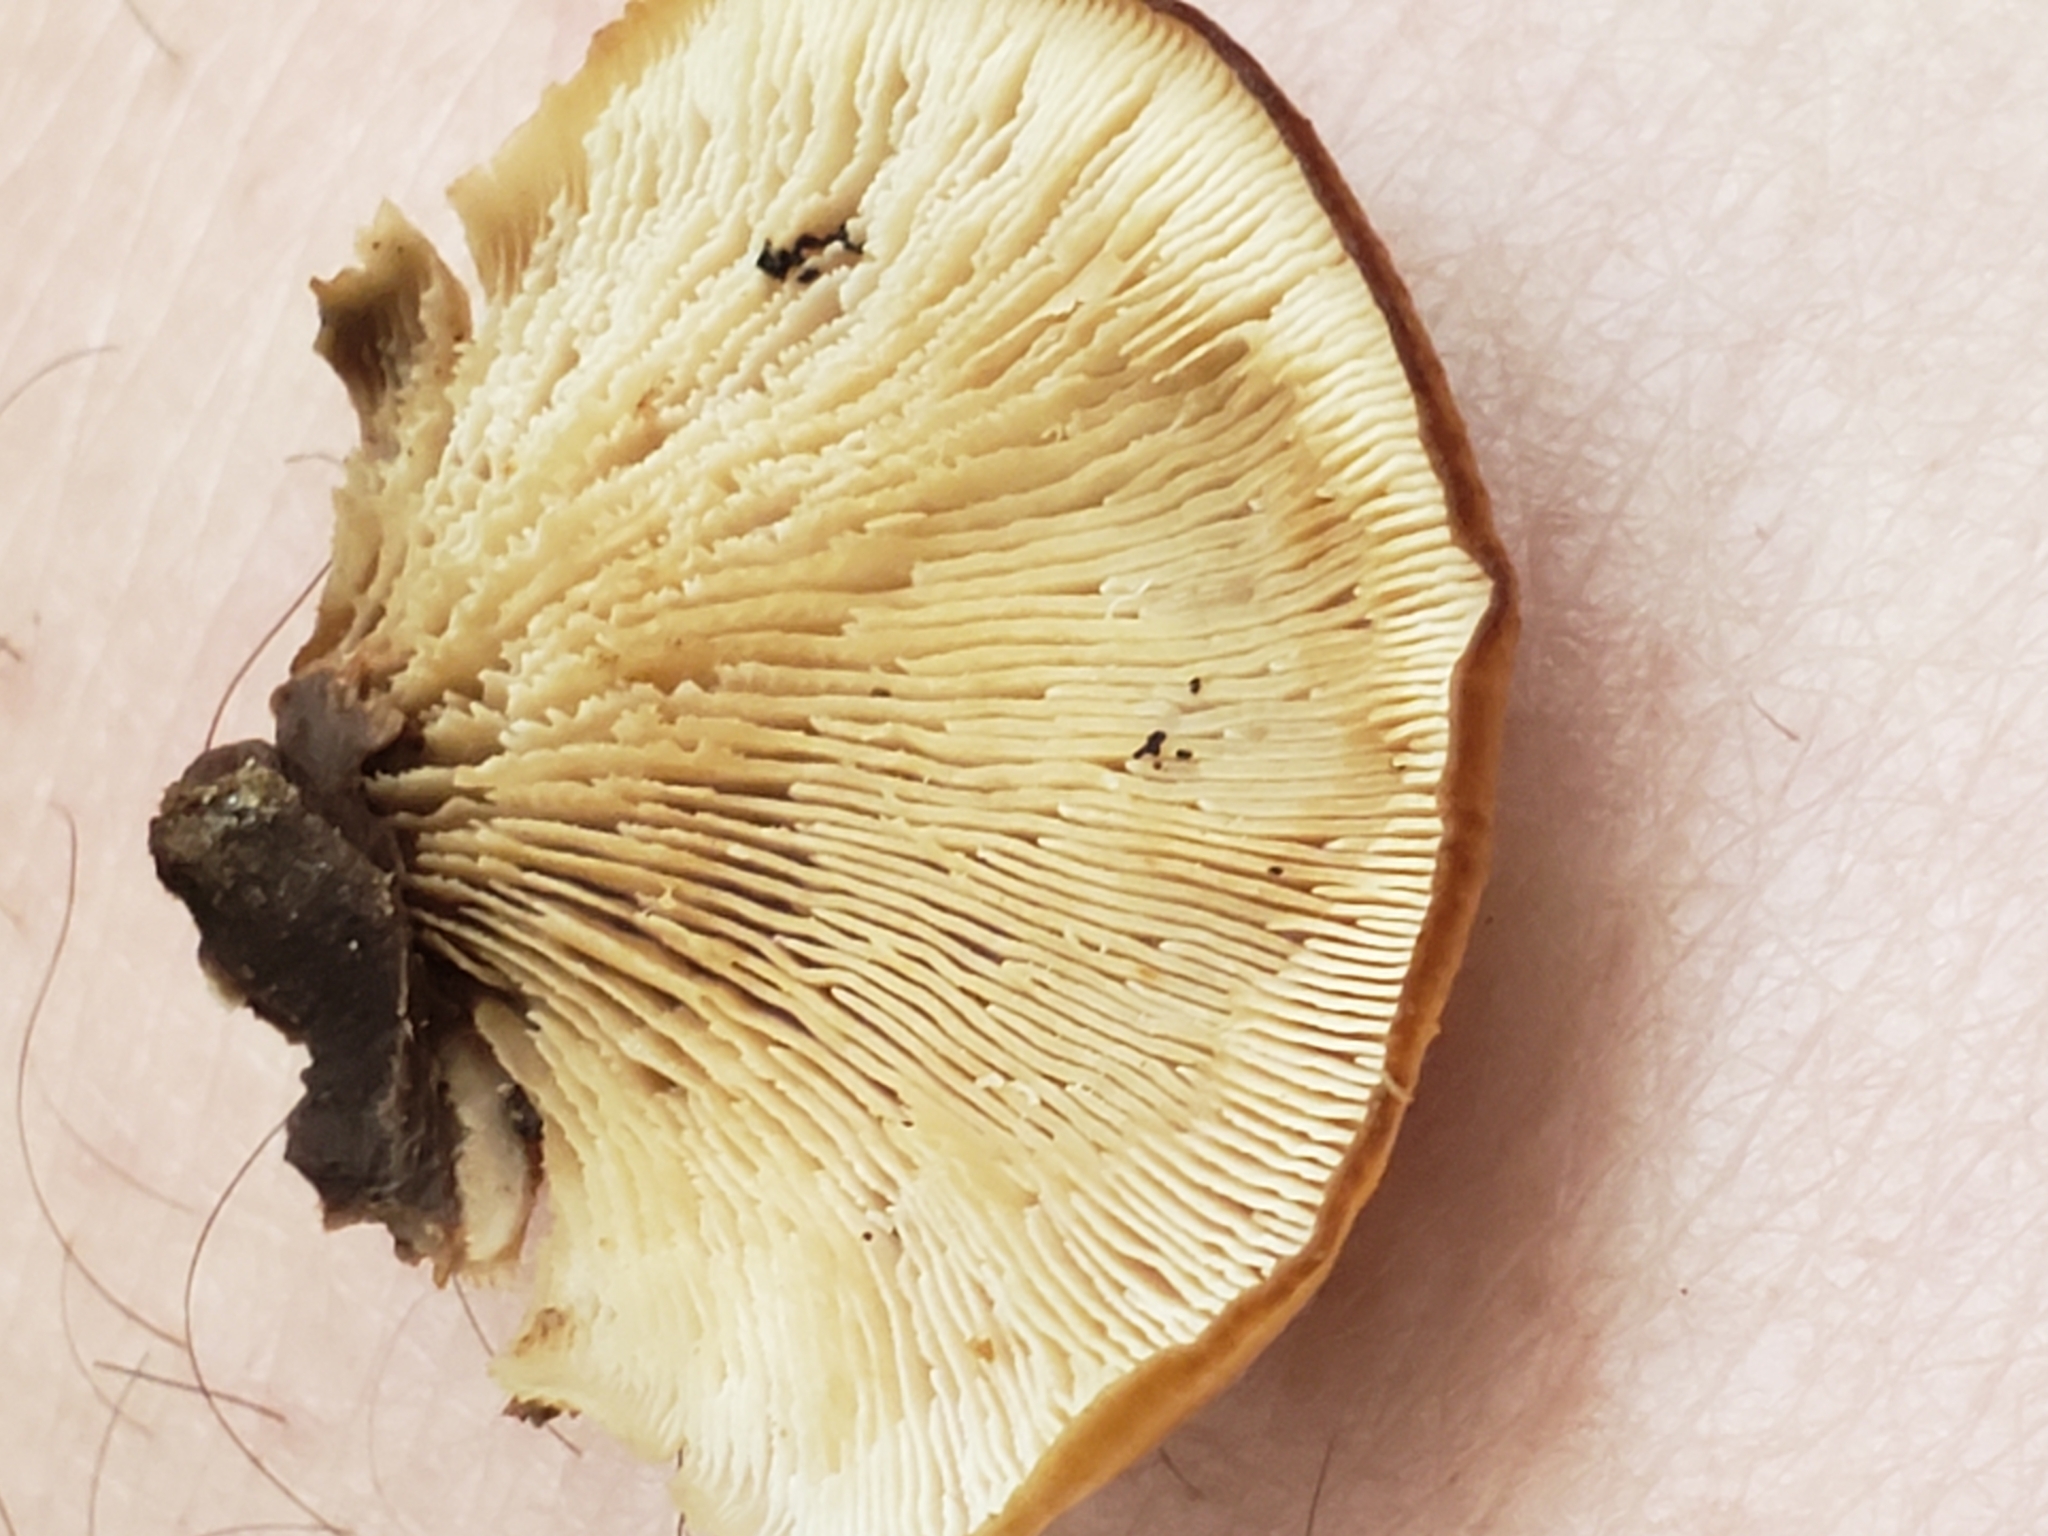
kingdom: Fungi
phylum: Basidiomycota
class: Agaricomycetes
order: Russulales
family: Auriscalpiaceae
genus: Lentinellus
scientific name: Lentinellus ursinus
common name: Bear lentinus
